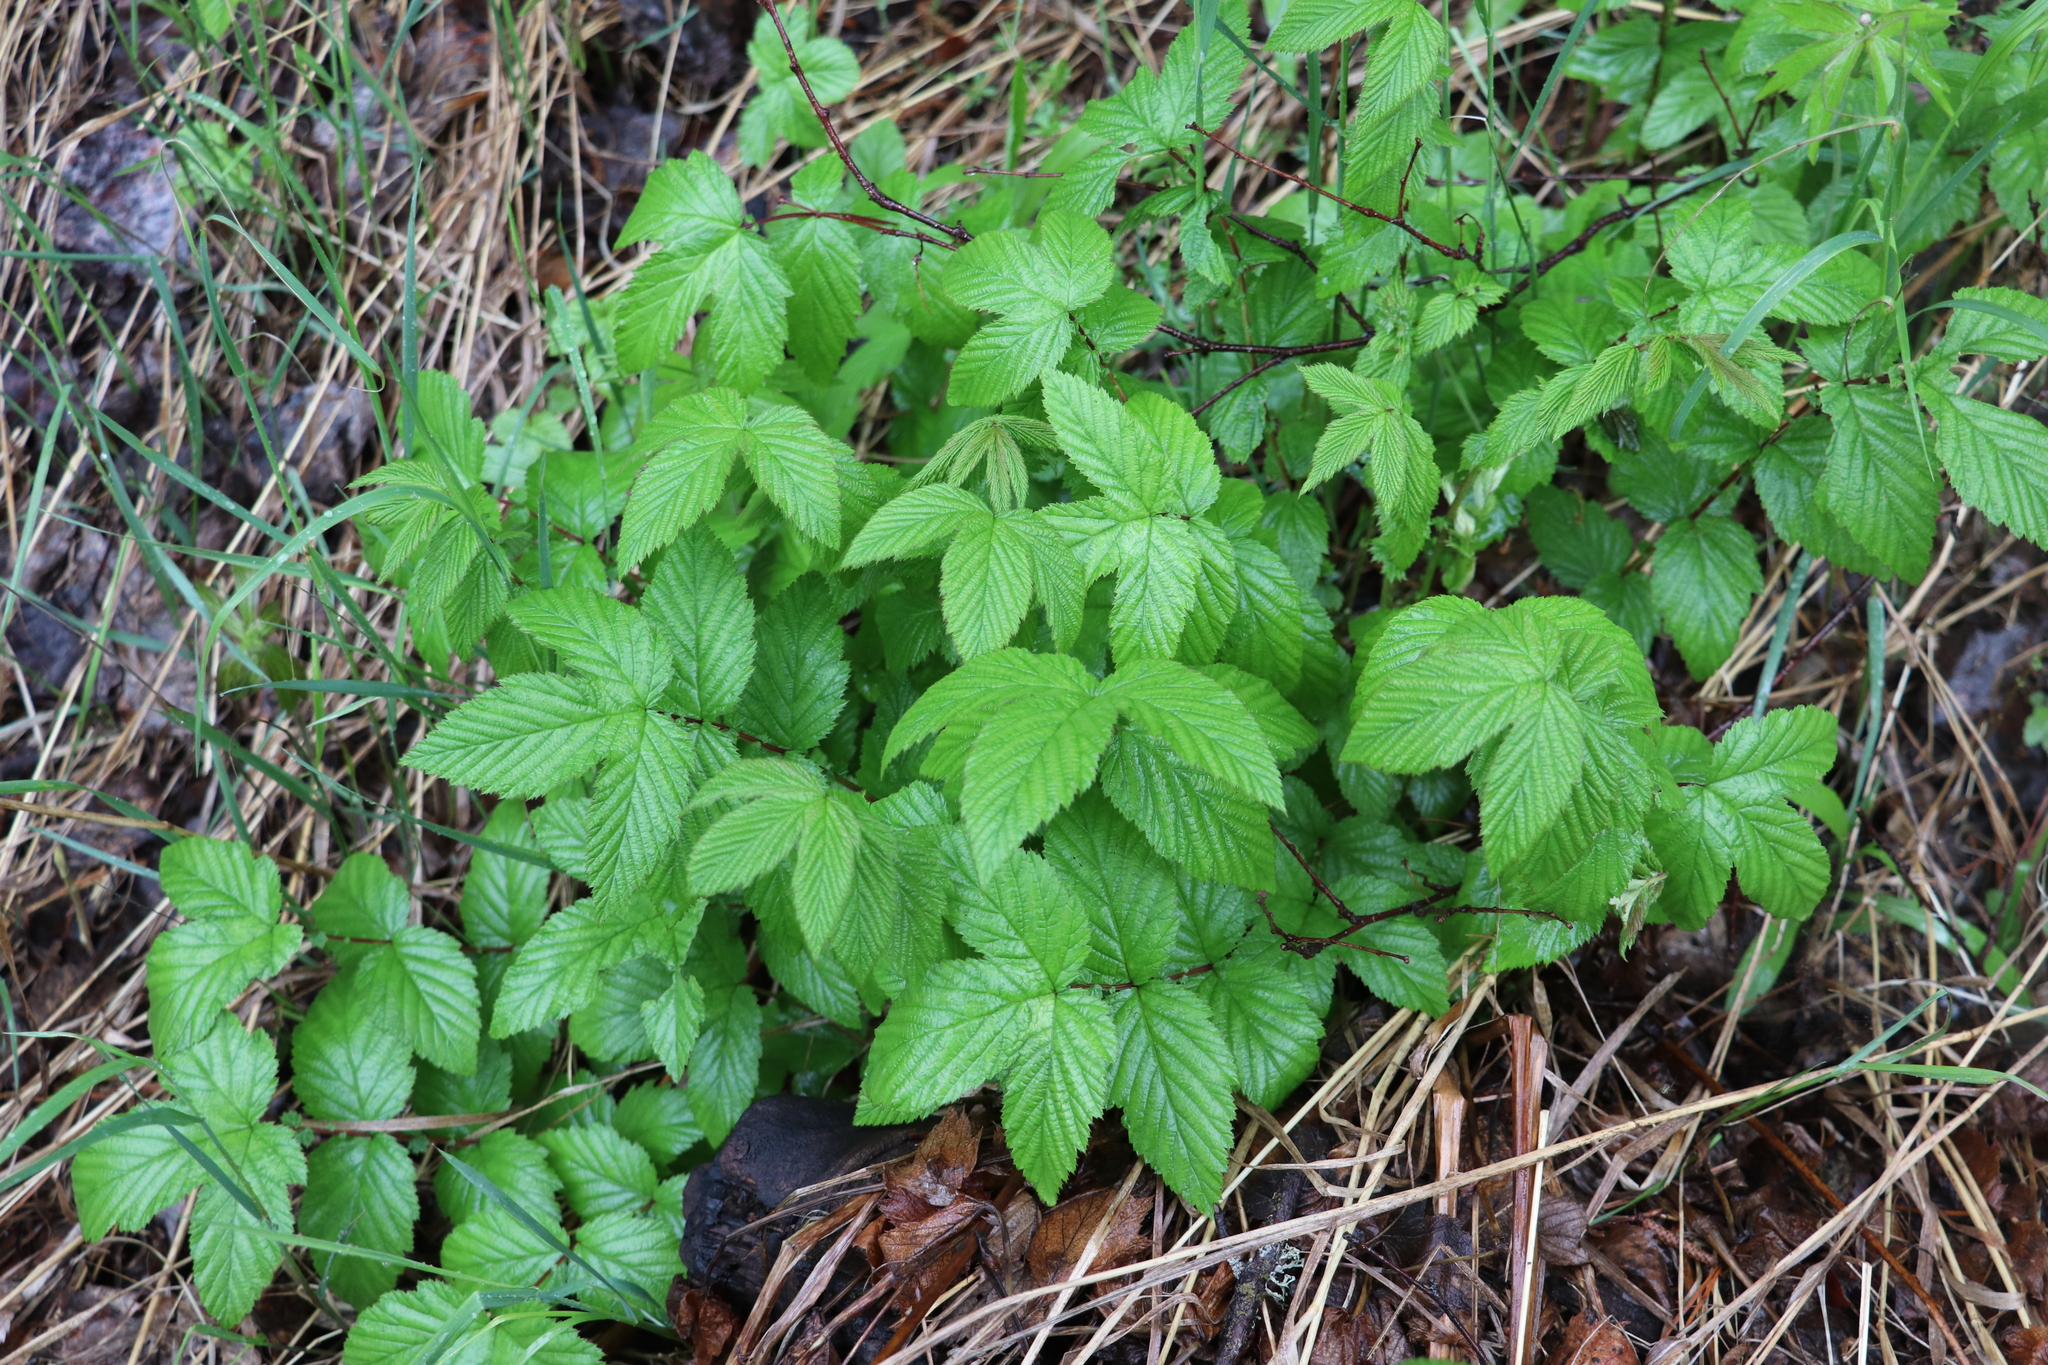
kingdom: Plantae
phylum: Tracheophyta
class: Magnoliopsida
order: Rosales
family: Rosaceae
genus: Filipendula
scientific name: Filipendula ulmaria
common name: Meadowsweet
